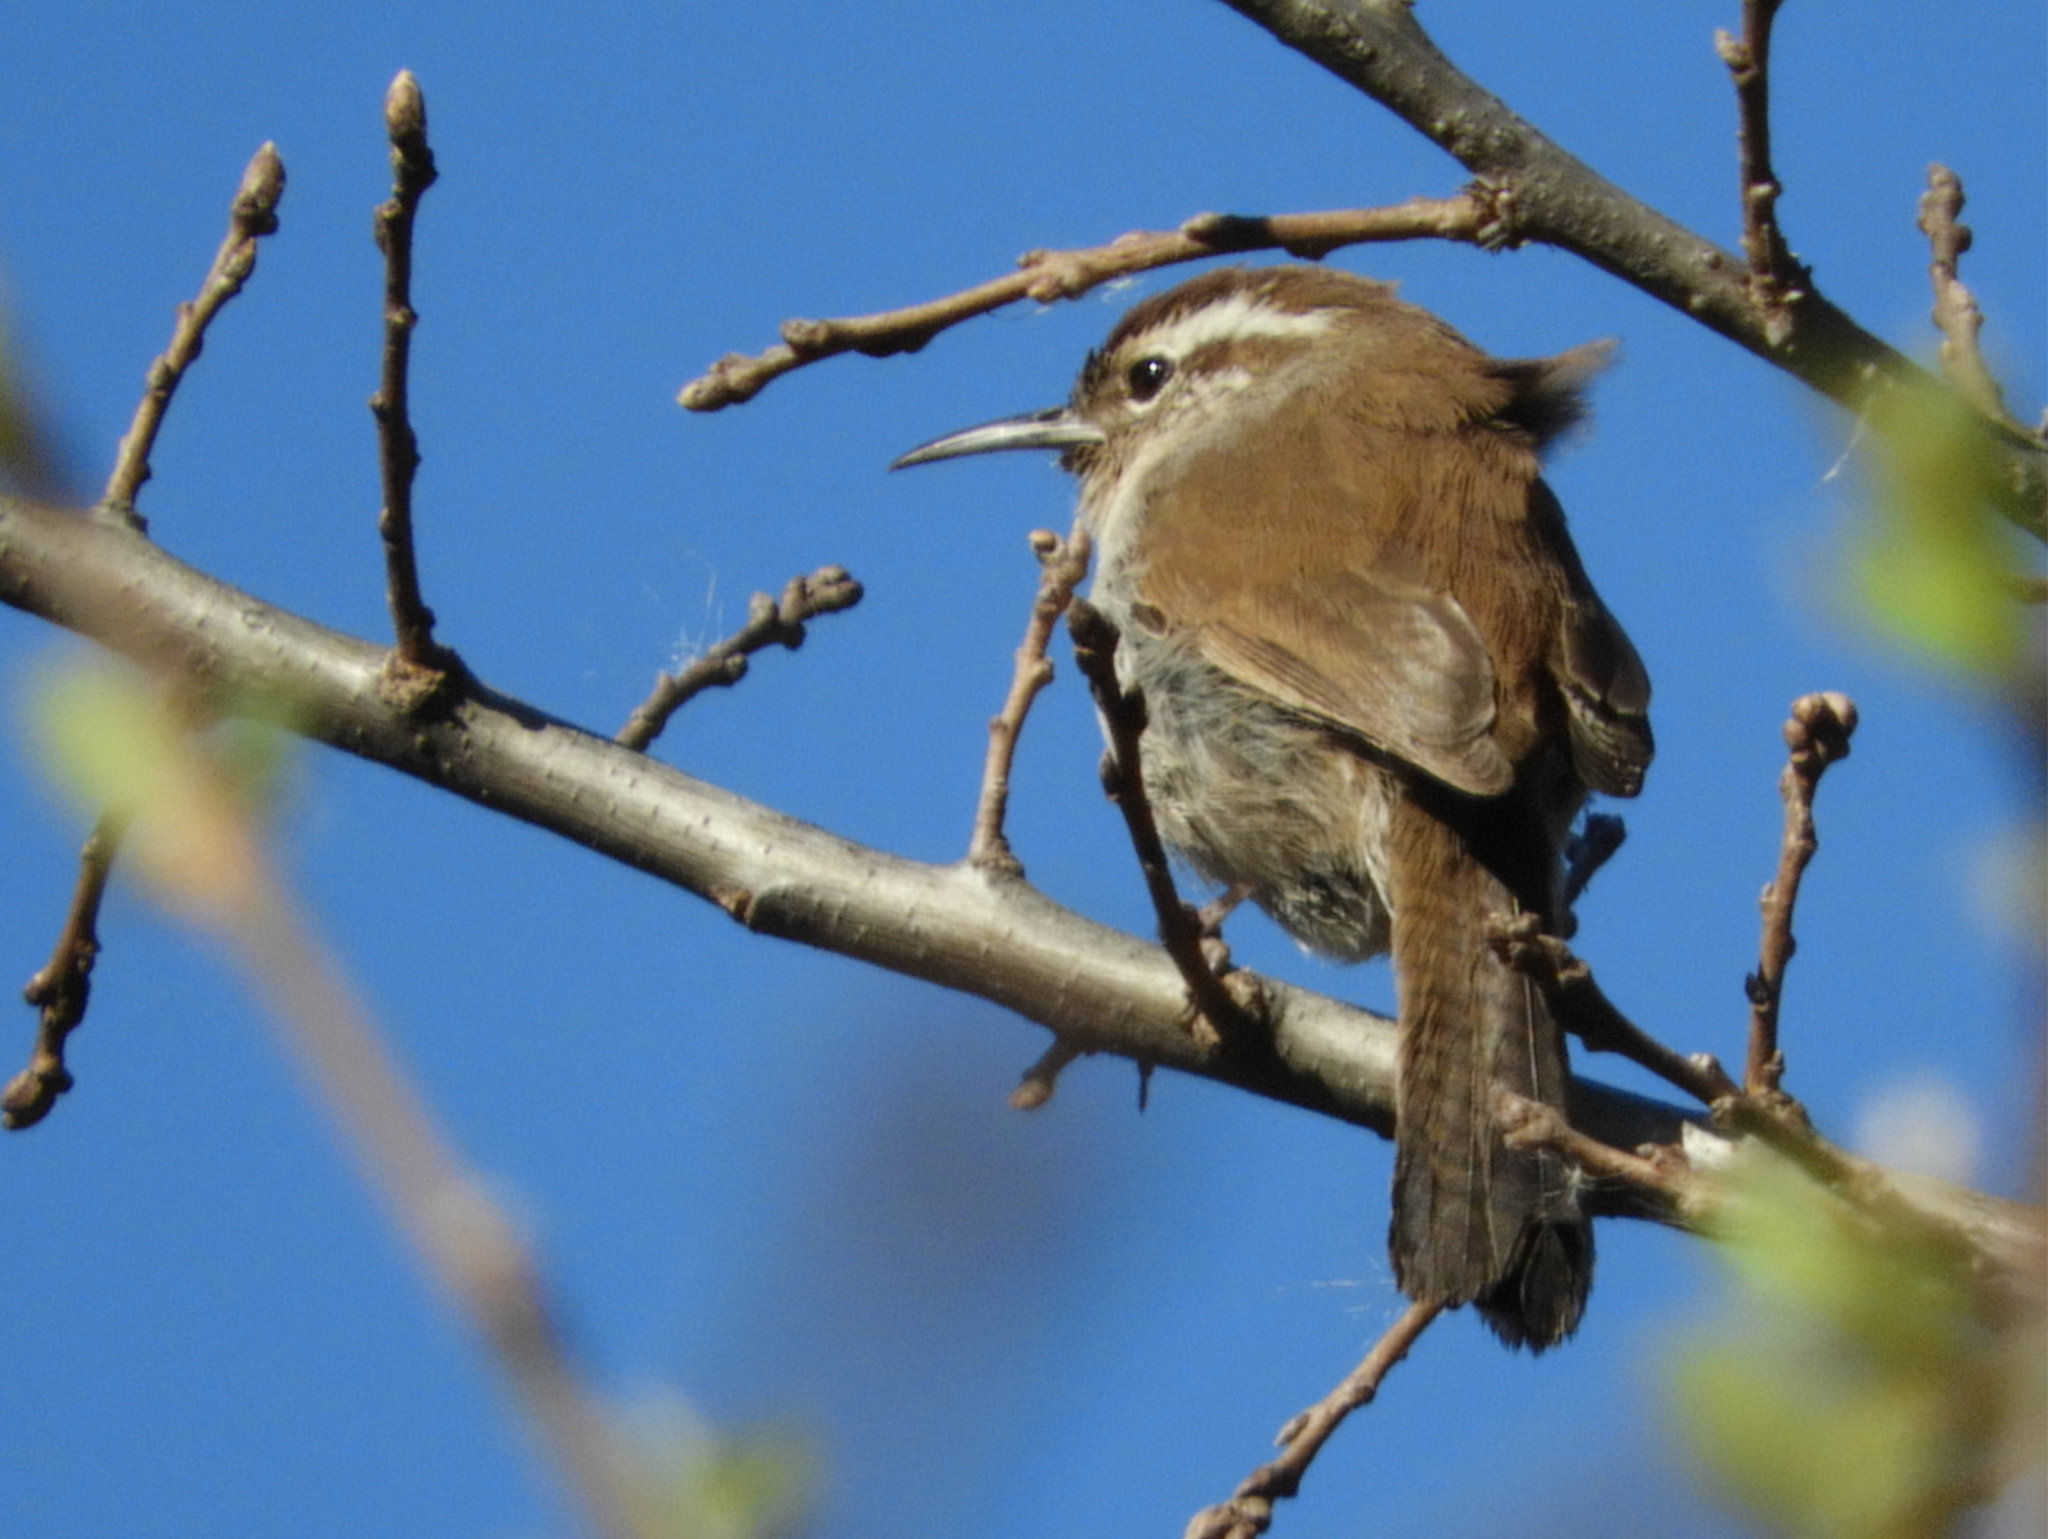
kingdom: Animalia
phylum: Chordata
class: Aves
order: Passeriformes
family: Troglodytidae
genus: Thryomanes
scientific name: Thryomanes bewickii
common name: Bewick's wren
